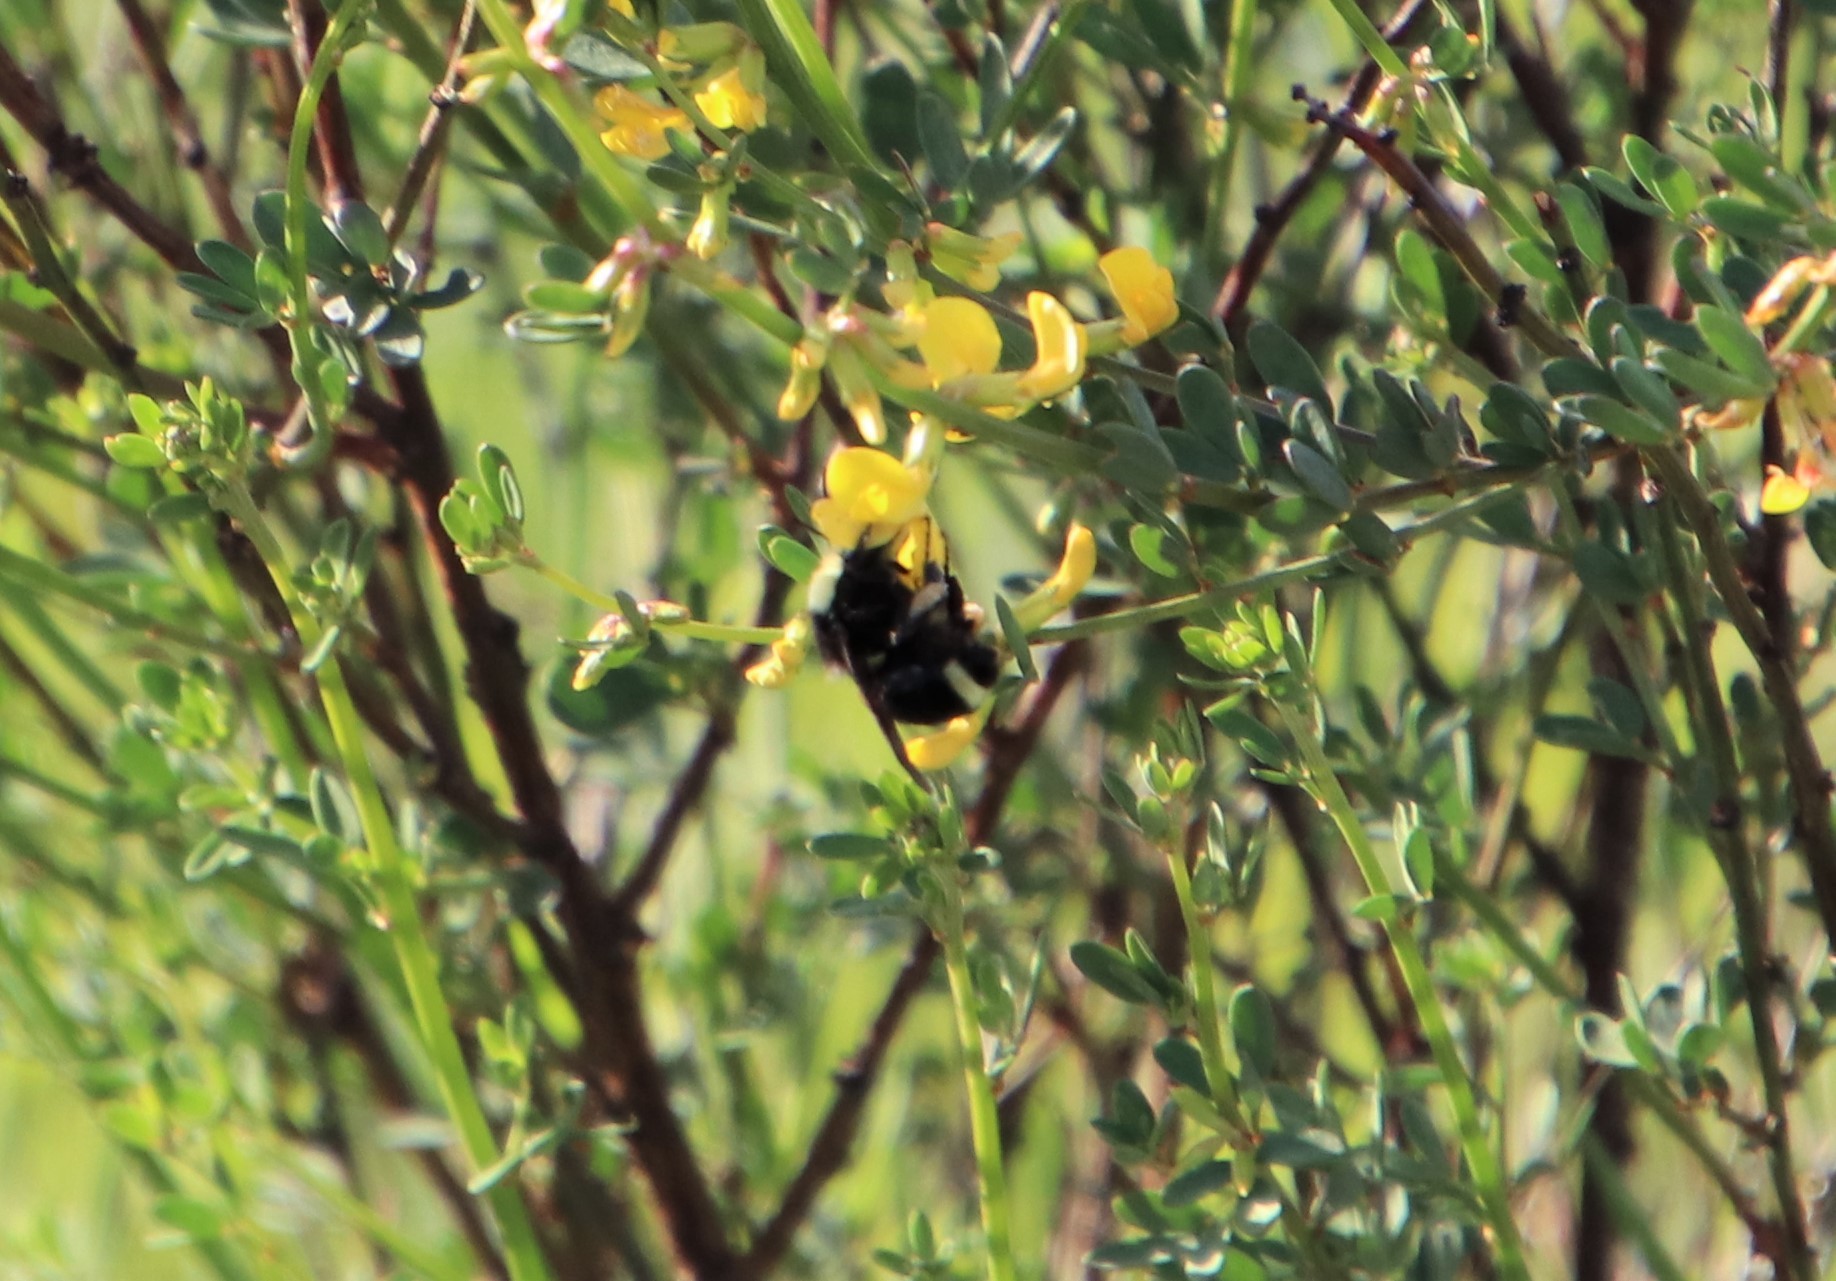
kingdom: Animalia
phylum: Arthropoda
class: Insecta
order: Hymenoptera
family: Apidae
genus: Bombus
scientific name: Bombus vosnesenskii
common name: Vosnesensky bumble bee
